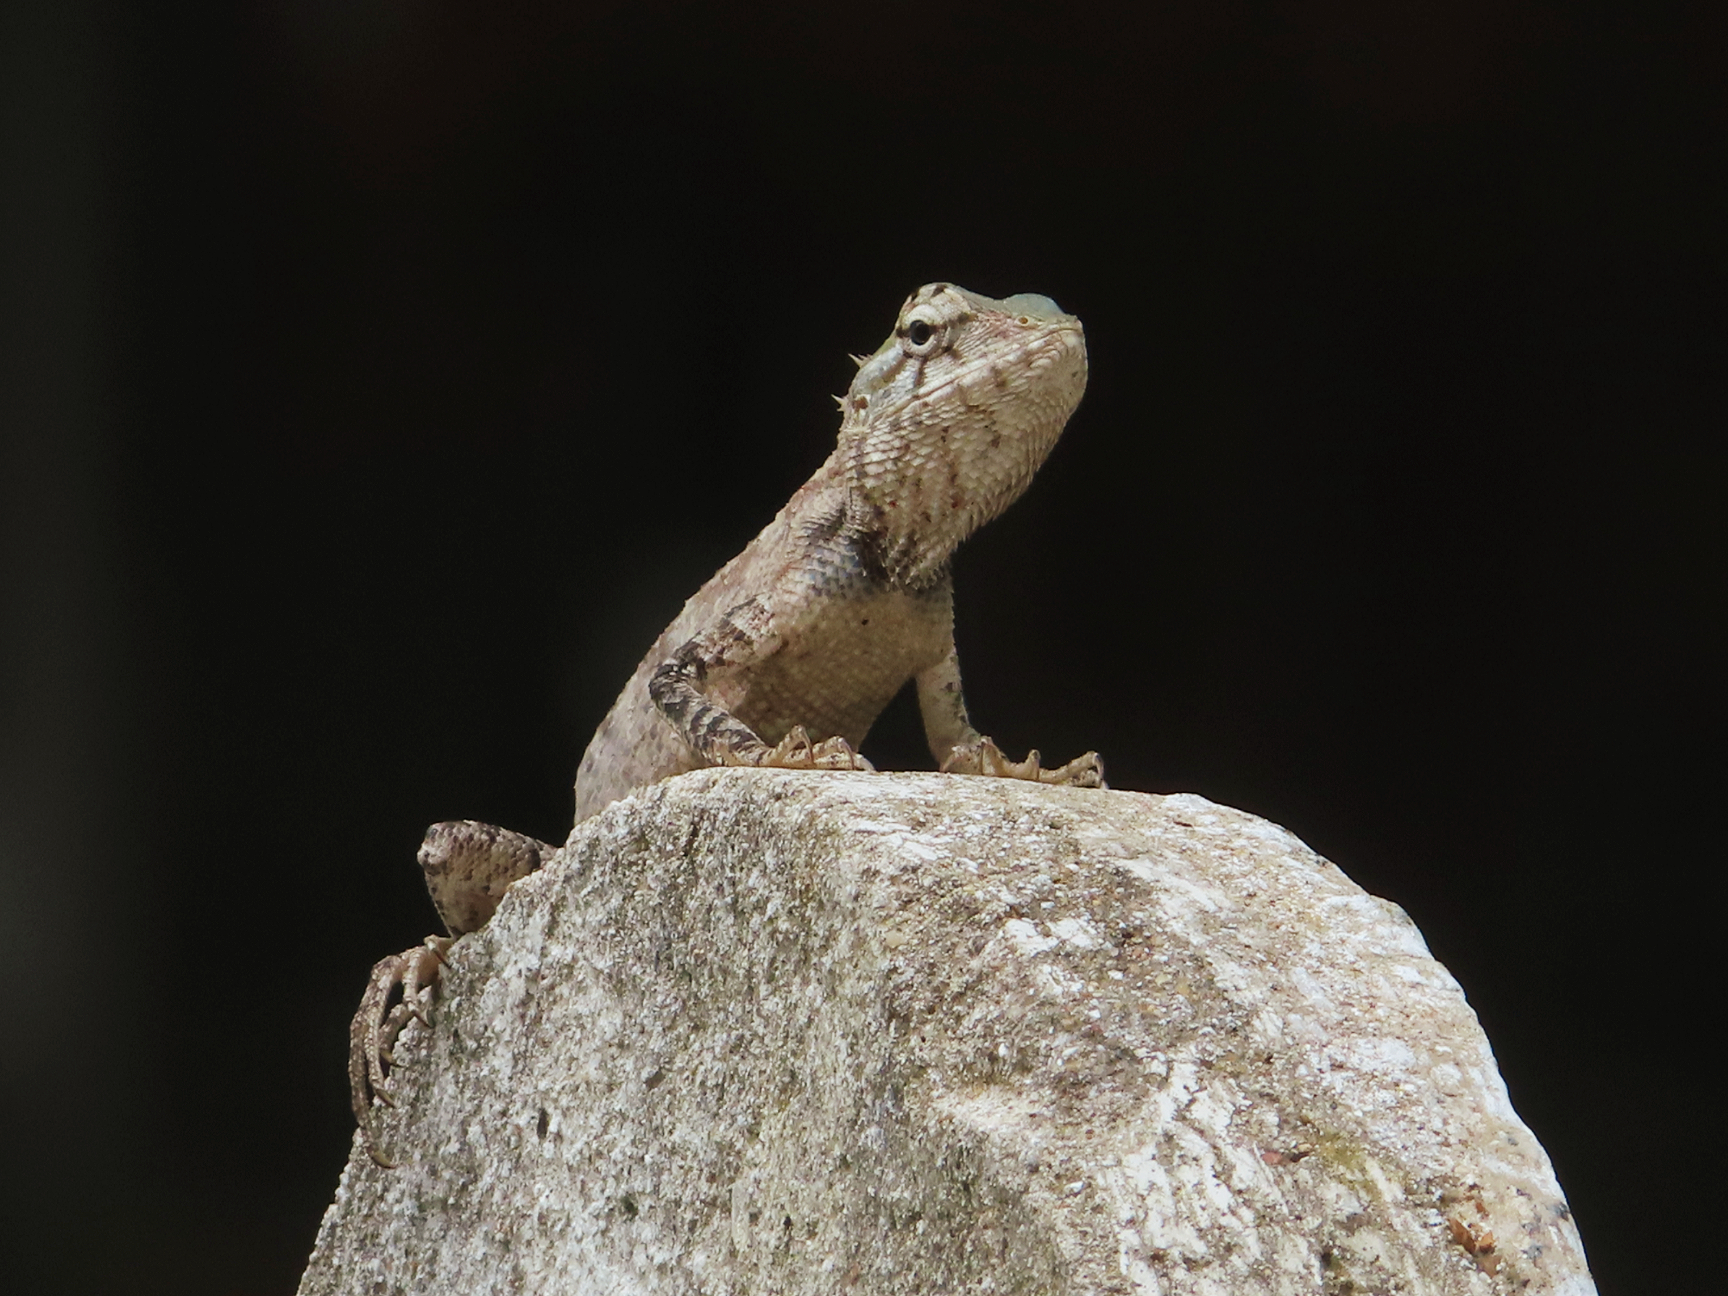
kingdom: Animalia
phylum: Chordata
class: Squamata
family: Agamidae
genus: Calotes
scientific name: Calotes versicolor
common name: Oriental garden lizard
